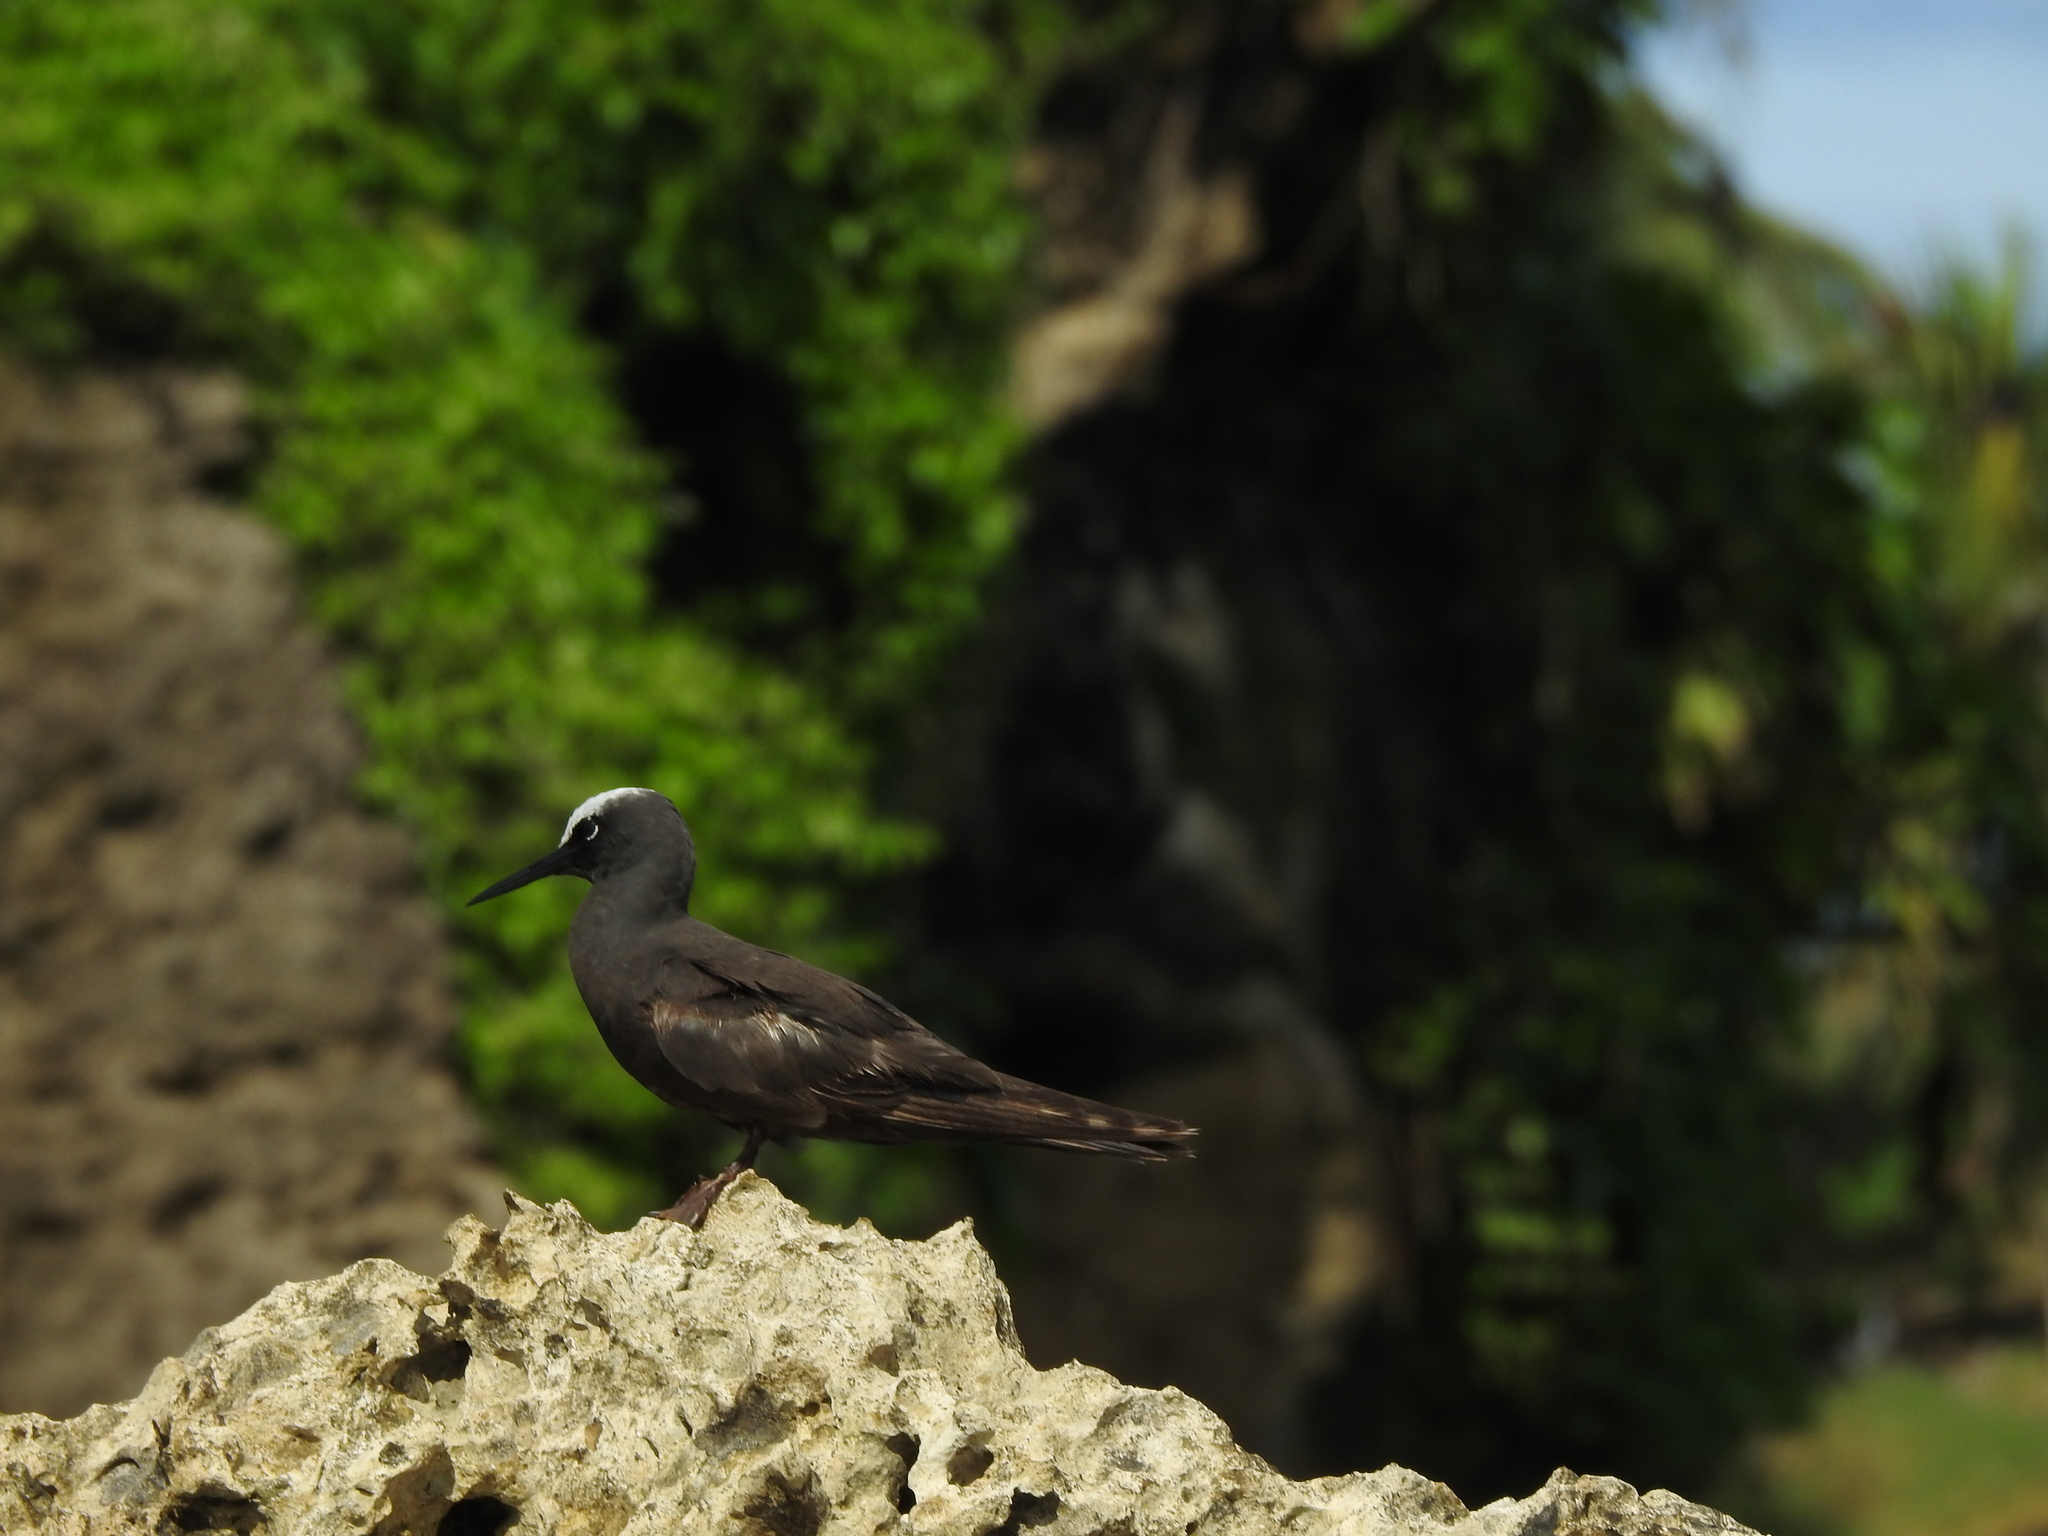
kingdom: Animalia
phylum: Chordata
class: Aves
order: Charadriiformes
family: Laridae
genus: Anous
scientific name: Anous minutus
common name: Black noddy
